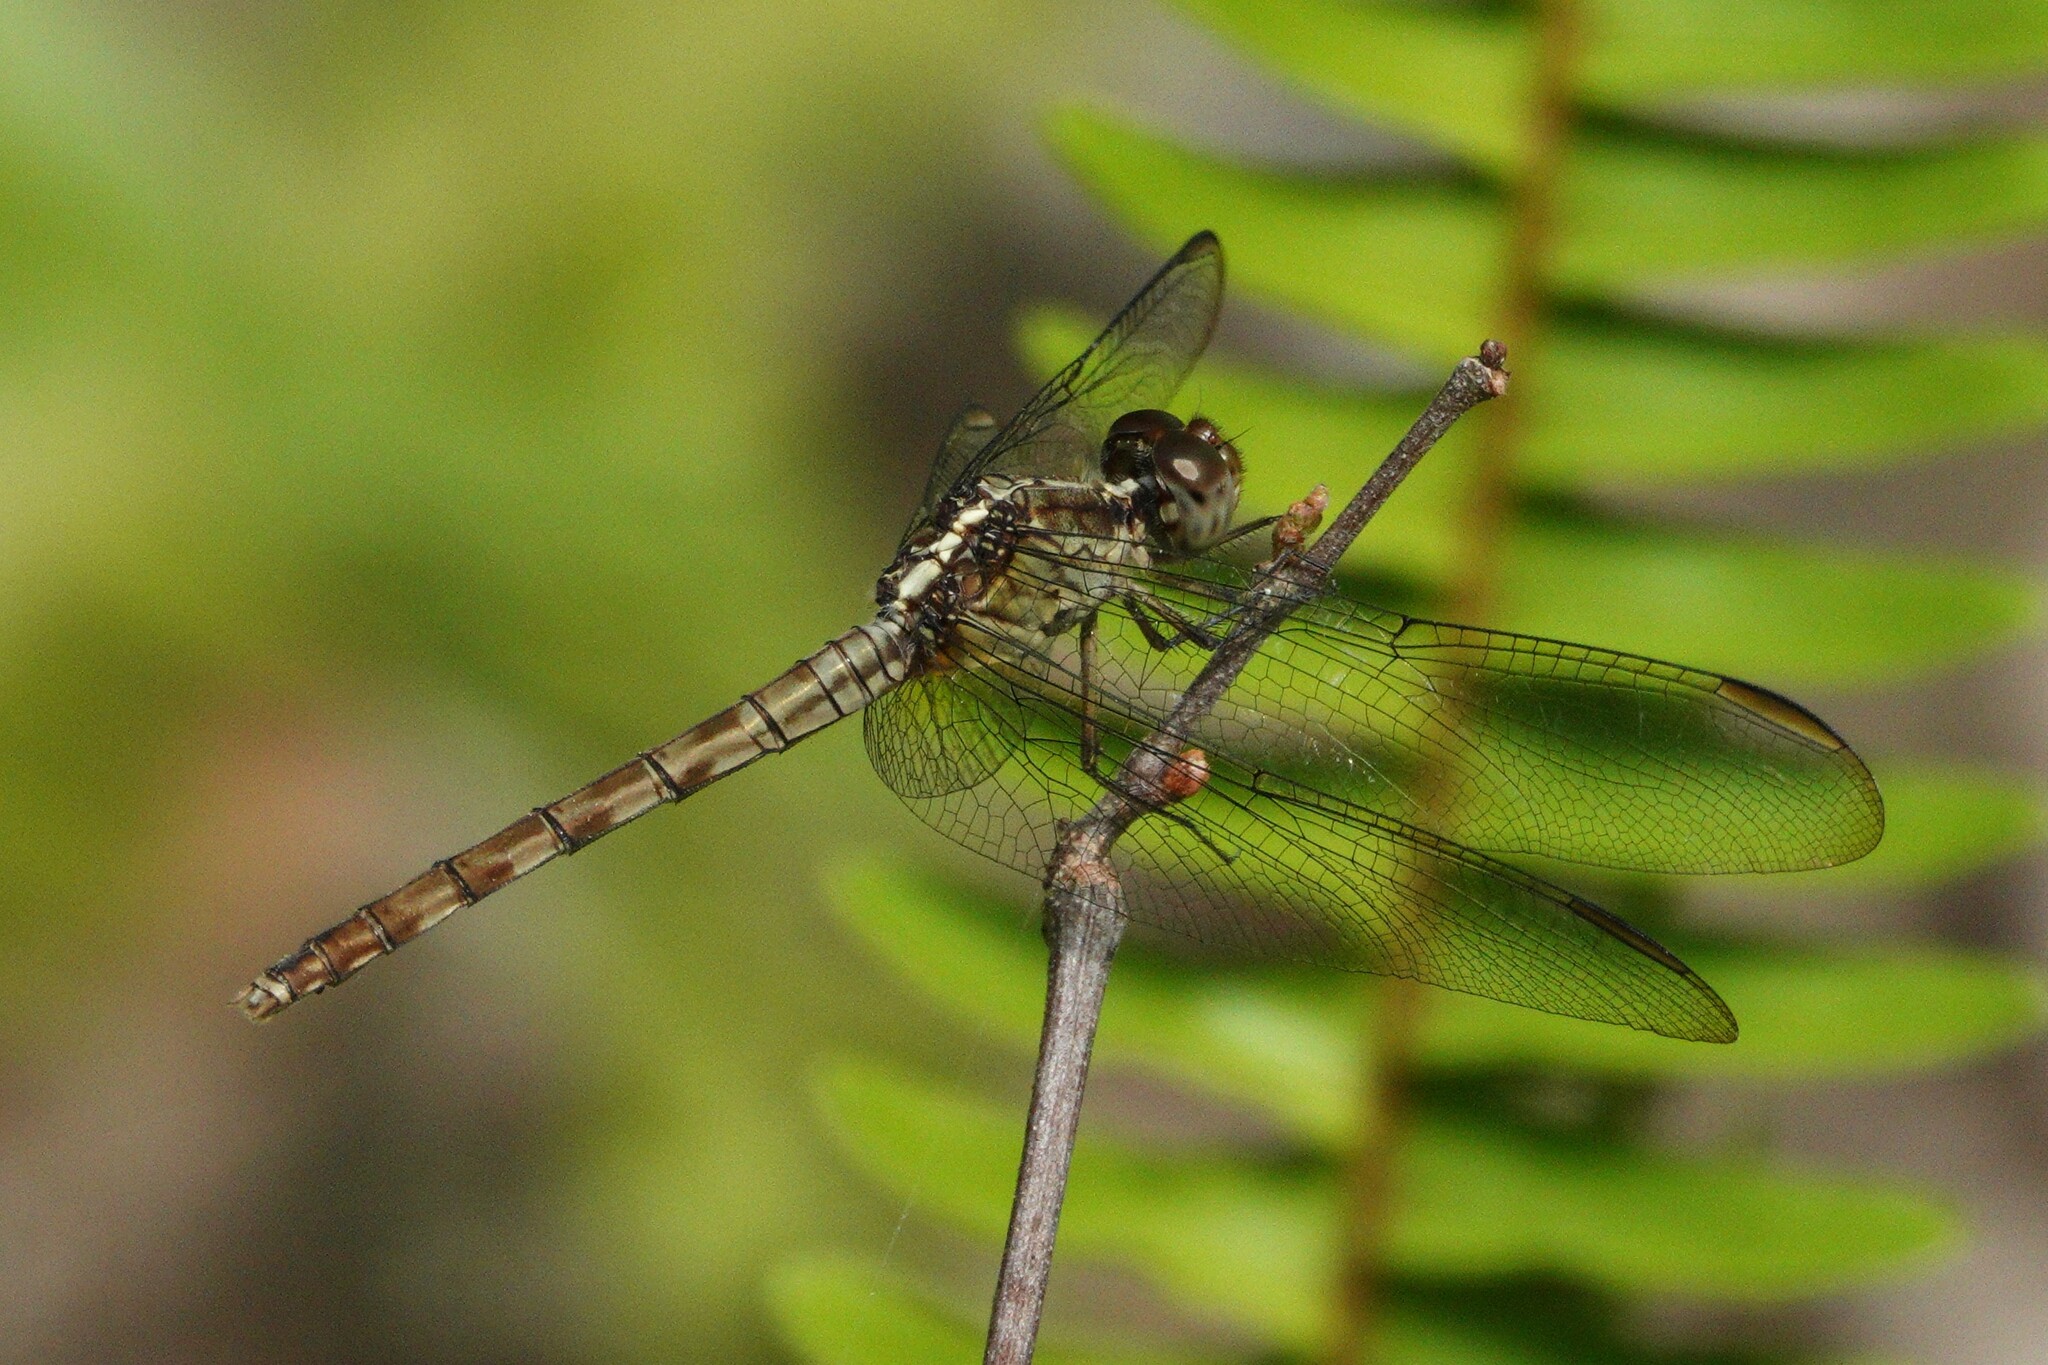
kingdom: Animalia
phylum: Arthropoda
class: Insecta
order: Odonata
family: Libellulidae
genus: Erythrodiplax
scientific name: Erythrodiplax umbrata
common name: Band-winged dragonlet
